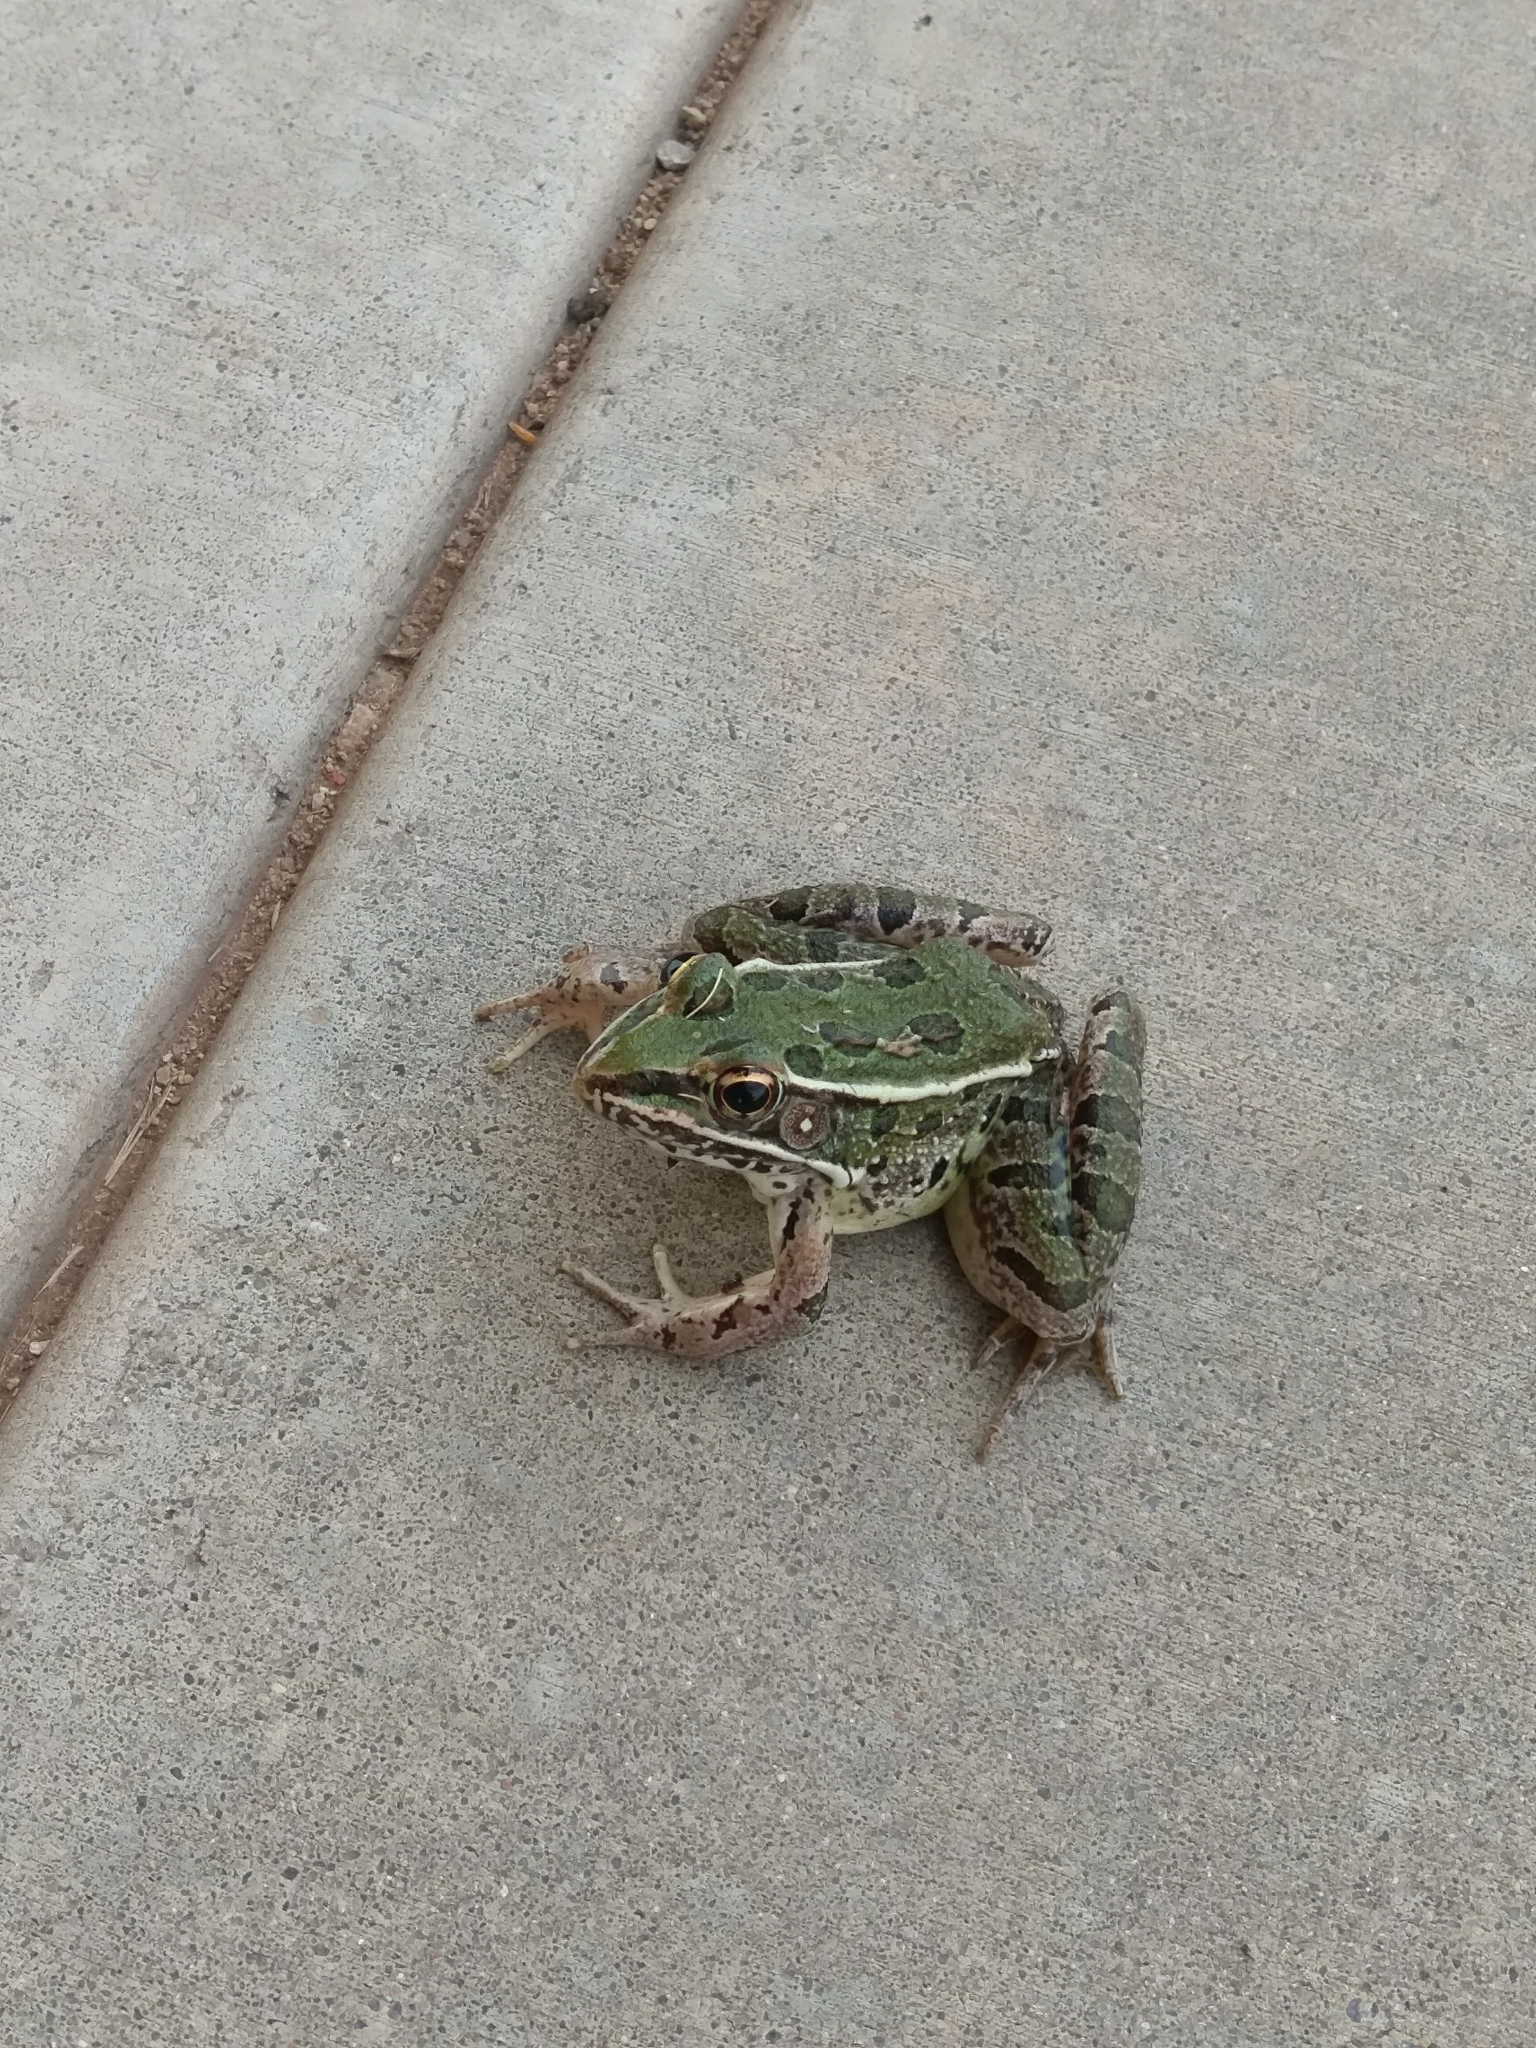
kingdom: Animalia
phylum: Chordata
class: Amphibia
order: Anura
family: Ranidae
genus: Lithobates
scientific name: Lithobates blairi
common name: Plains leopard frog
